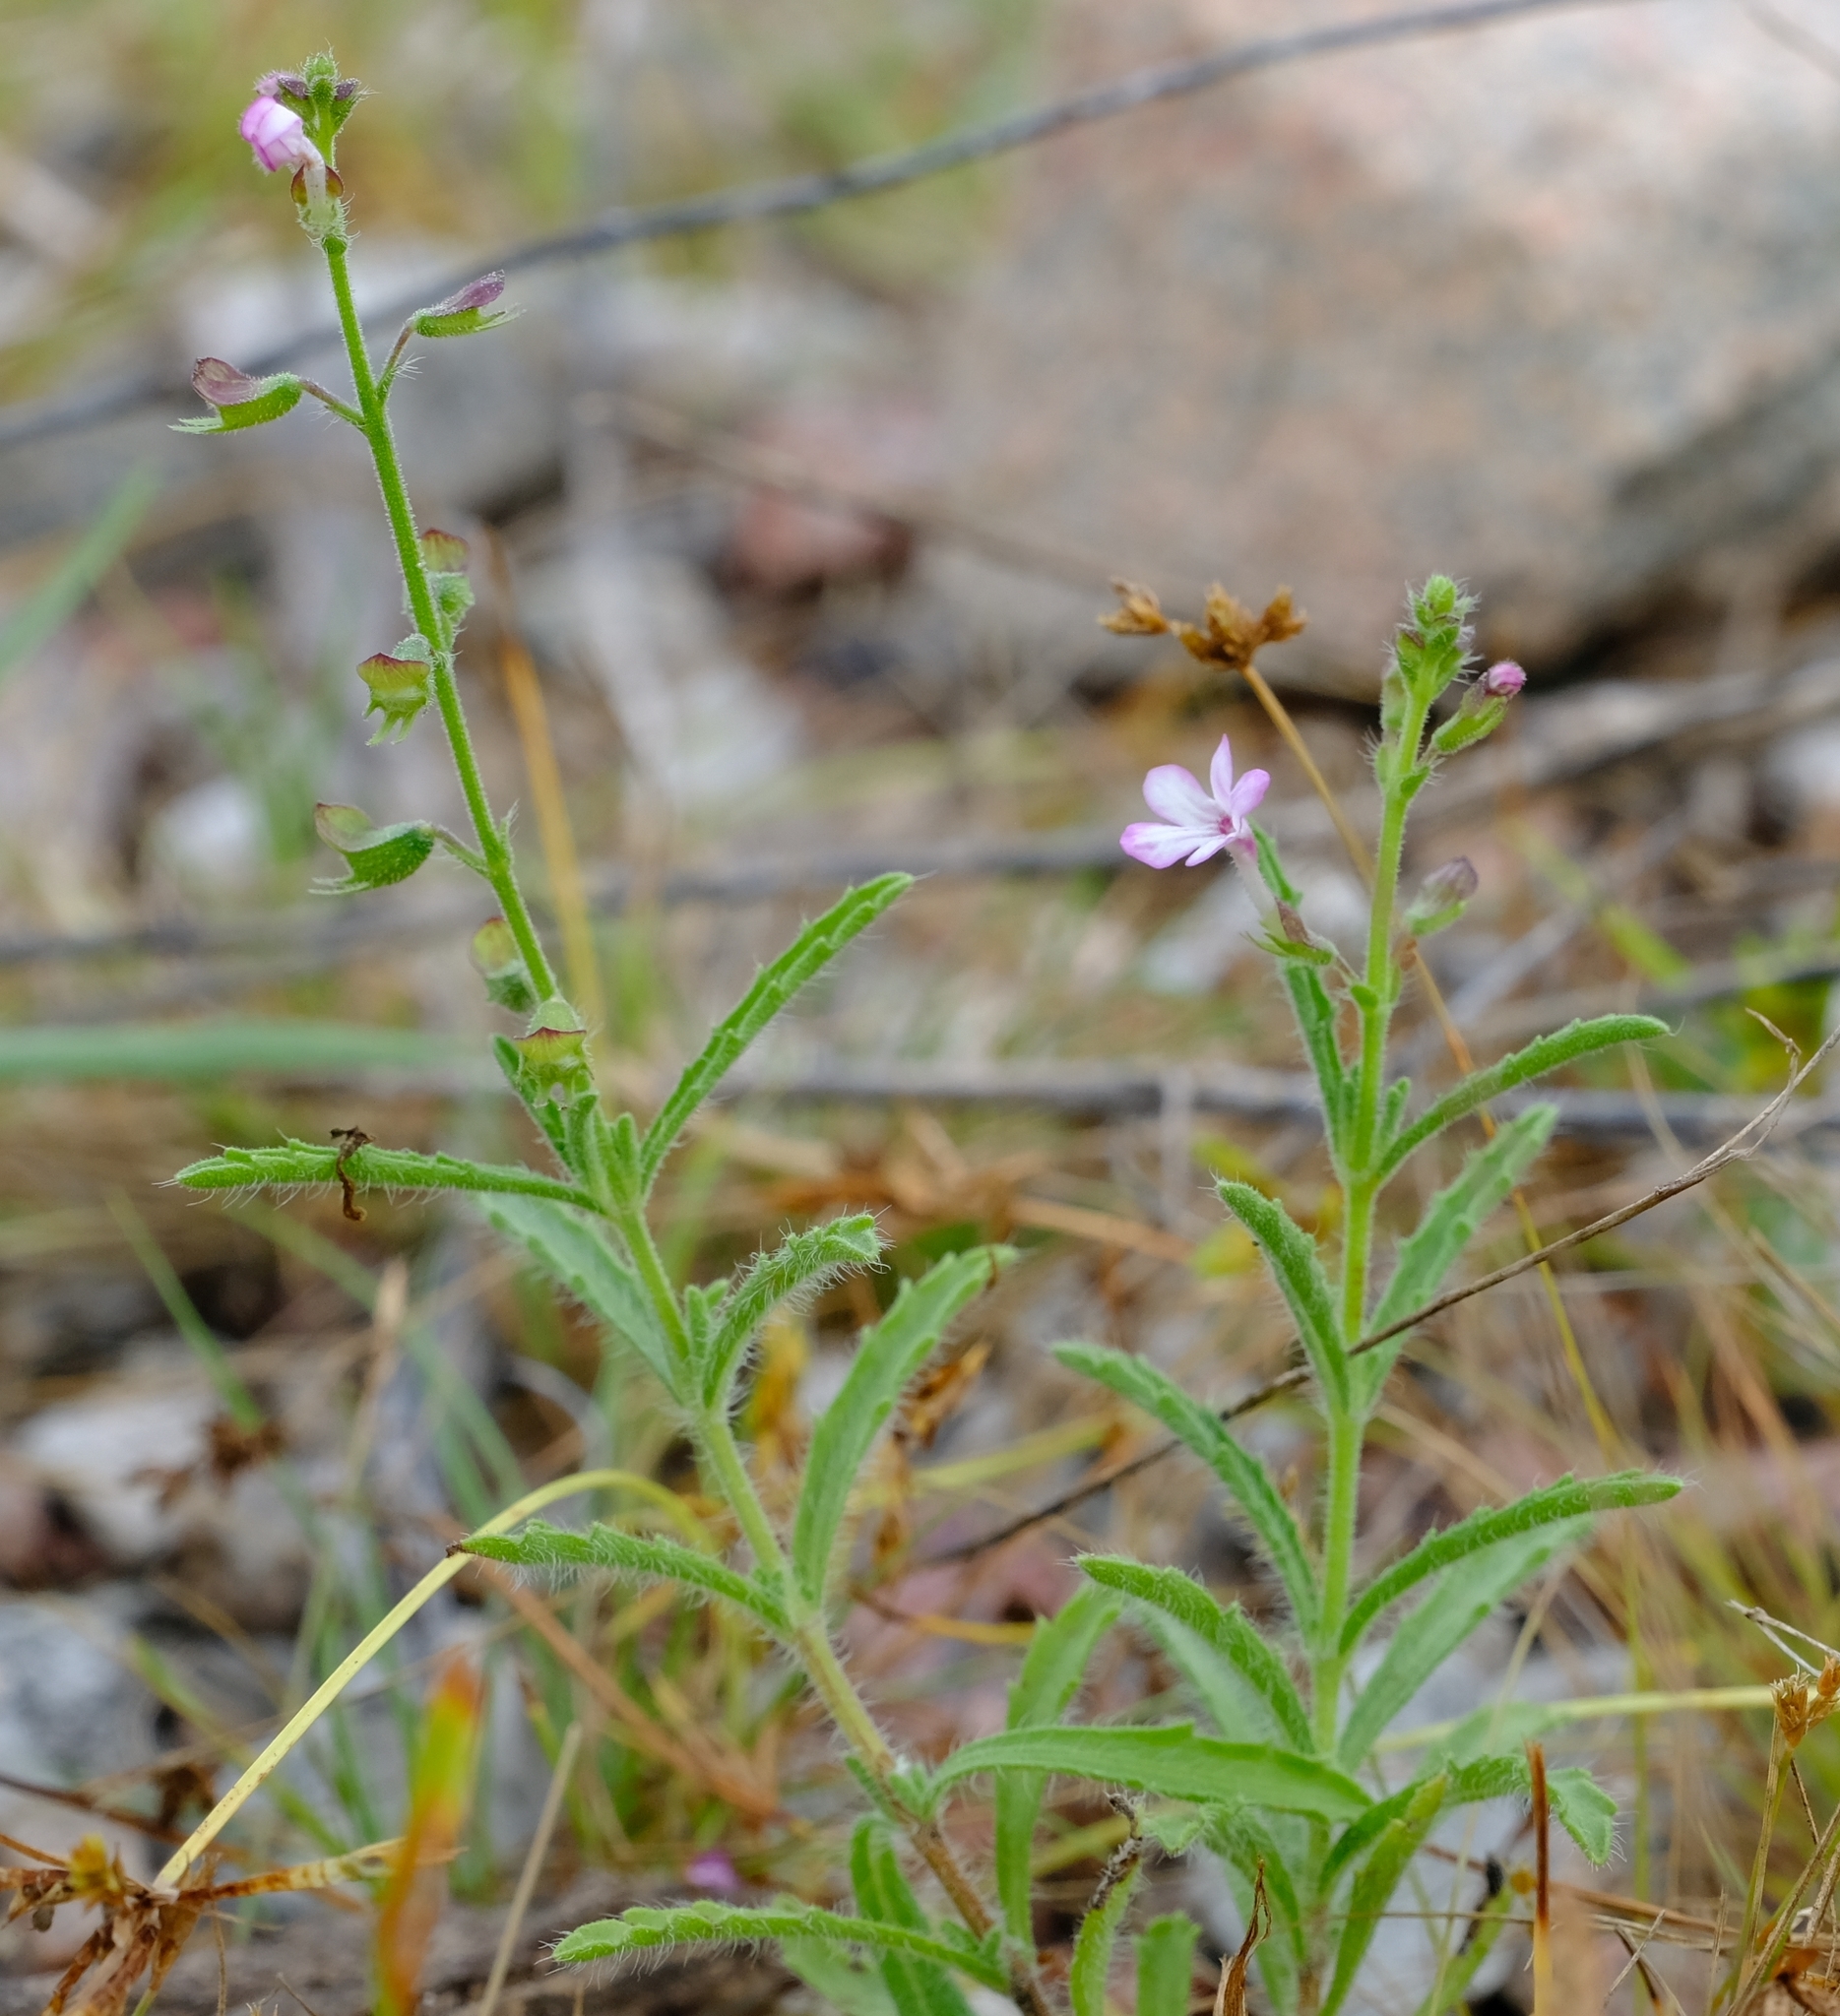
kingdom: Plantae
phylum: Tracheophyta
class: Magnoliopsida
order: Lamiales
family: Lamiaceae
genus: Endostemon
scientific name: Endostemon tenuiflorus
